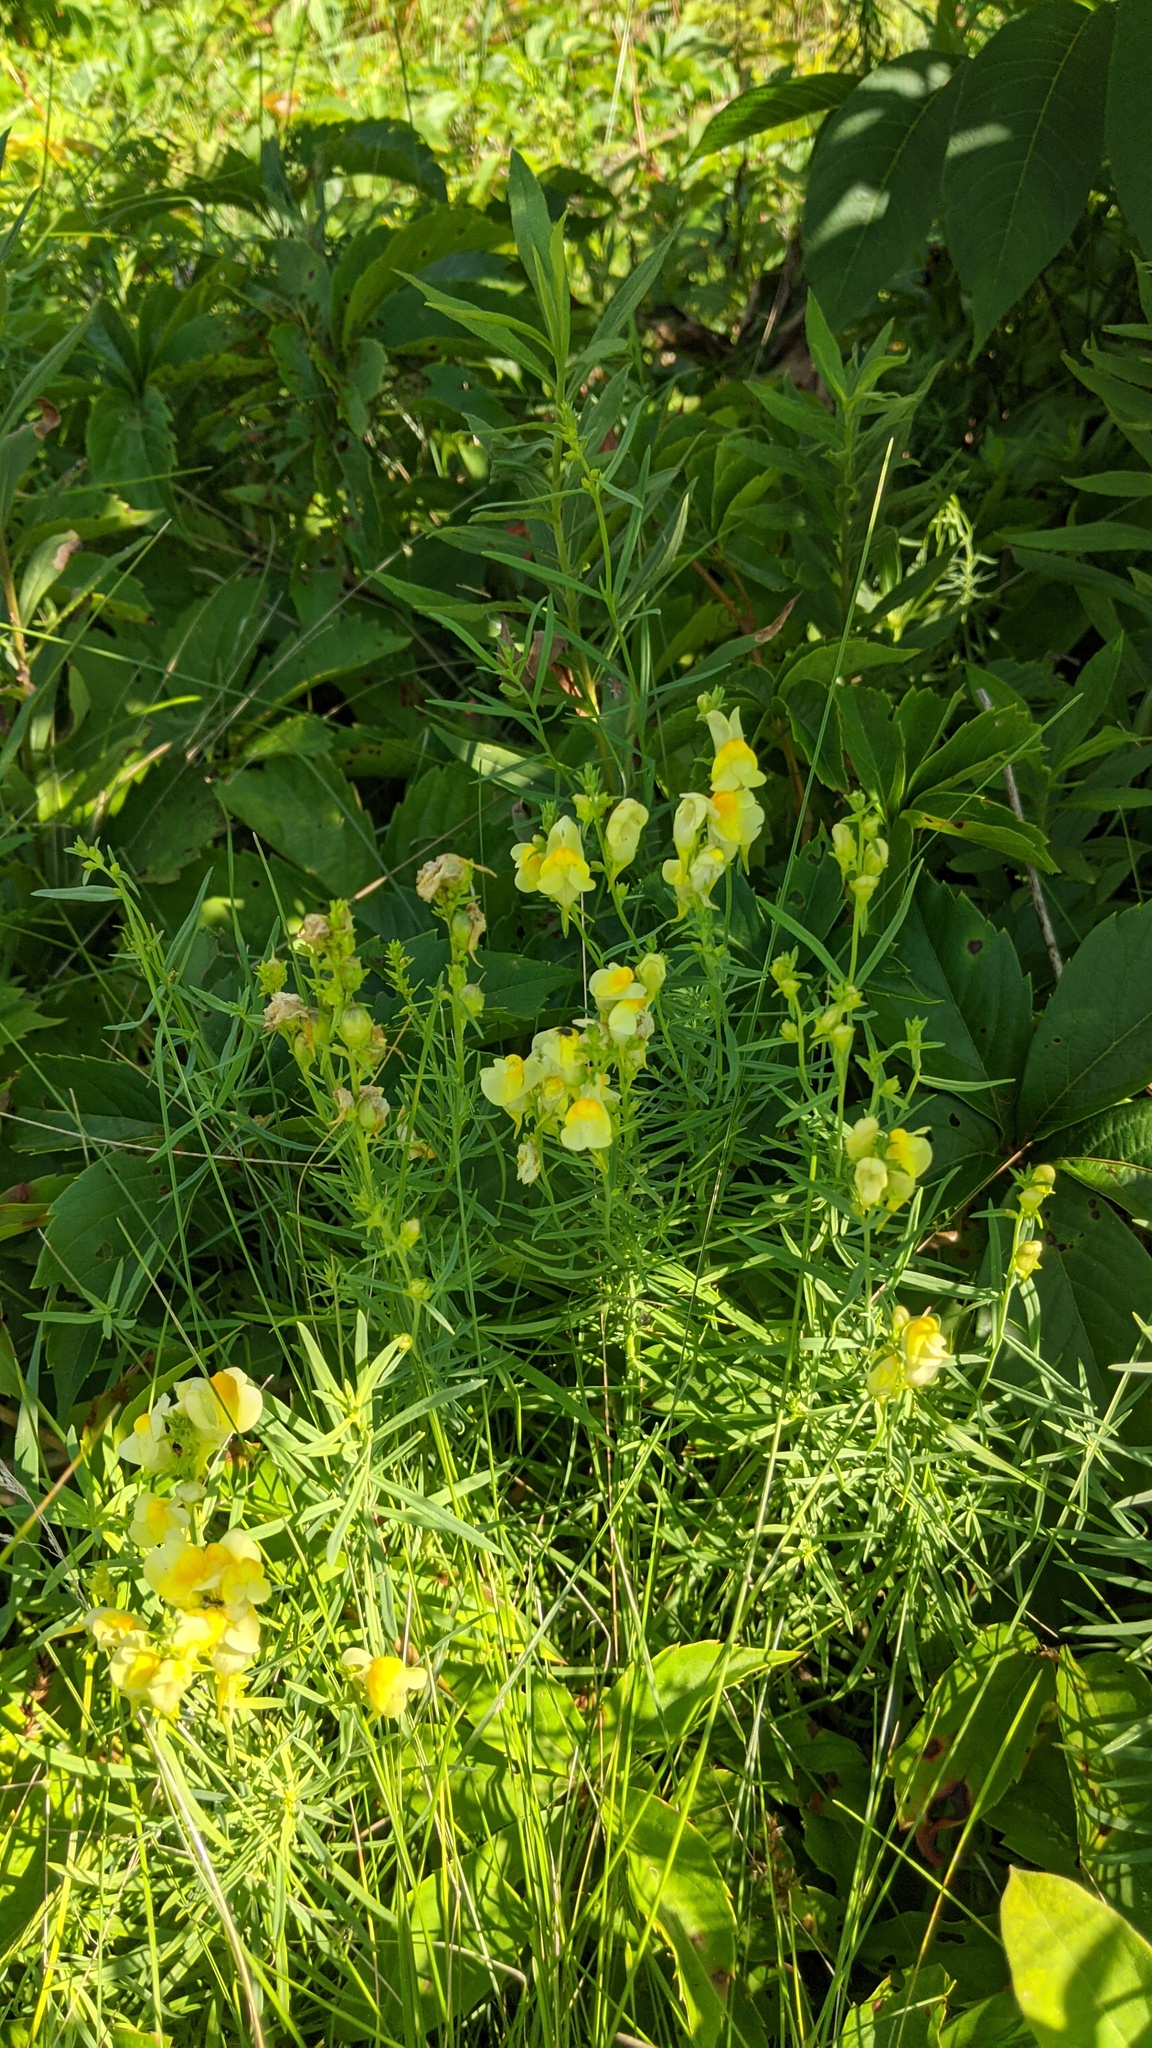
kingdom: Plantae
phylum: Tracheophyta
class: Magnoliopsida
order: Lamiales
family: Plantaginaceae
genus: Linaria
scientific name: Linaria vulgaris
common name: Butter and eggs
